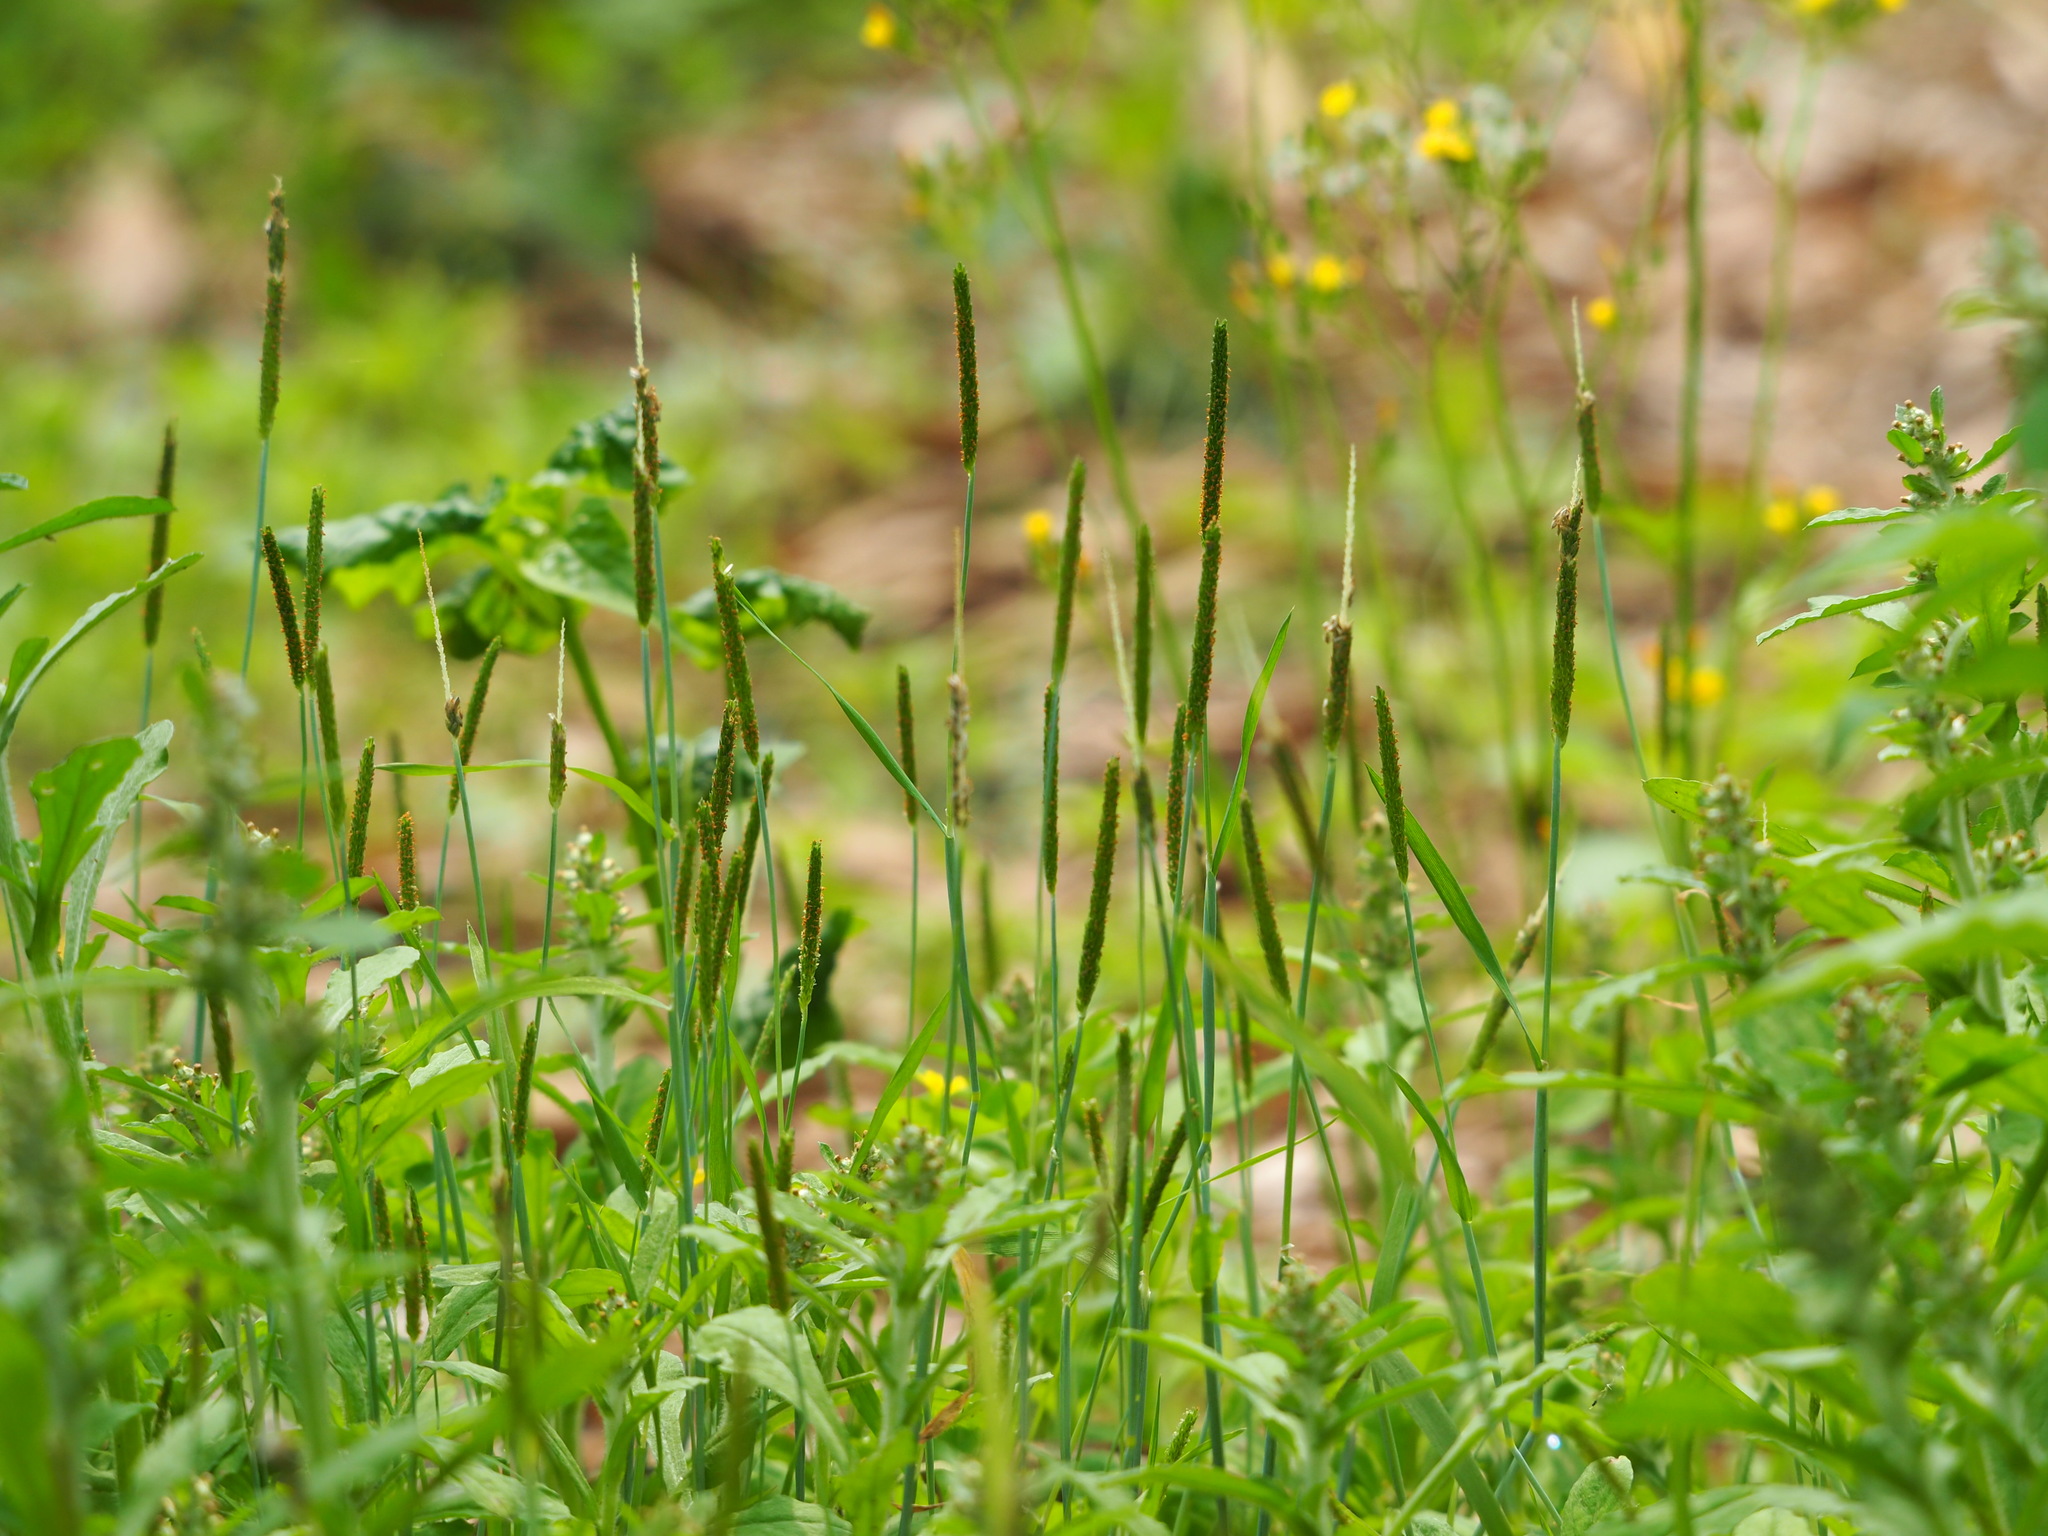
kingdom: Plantae
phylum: Tracheophyta
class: Liliopsida
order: Poales
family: Poaceae
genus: Alopecurus
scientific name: Alopecurus aequalis
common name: Orange foxtail
